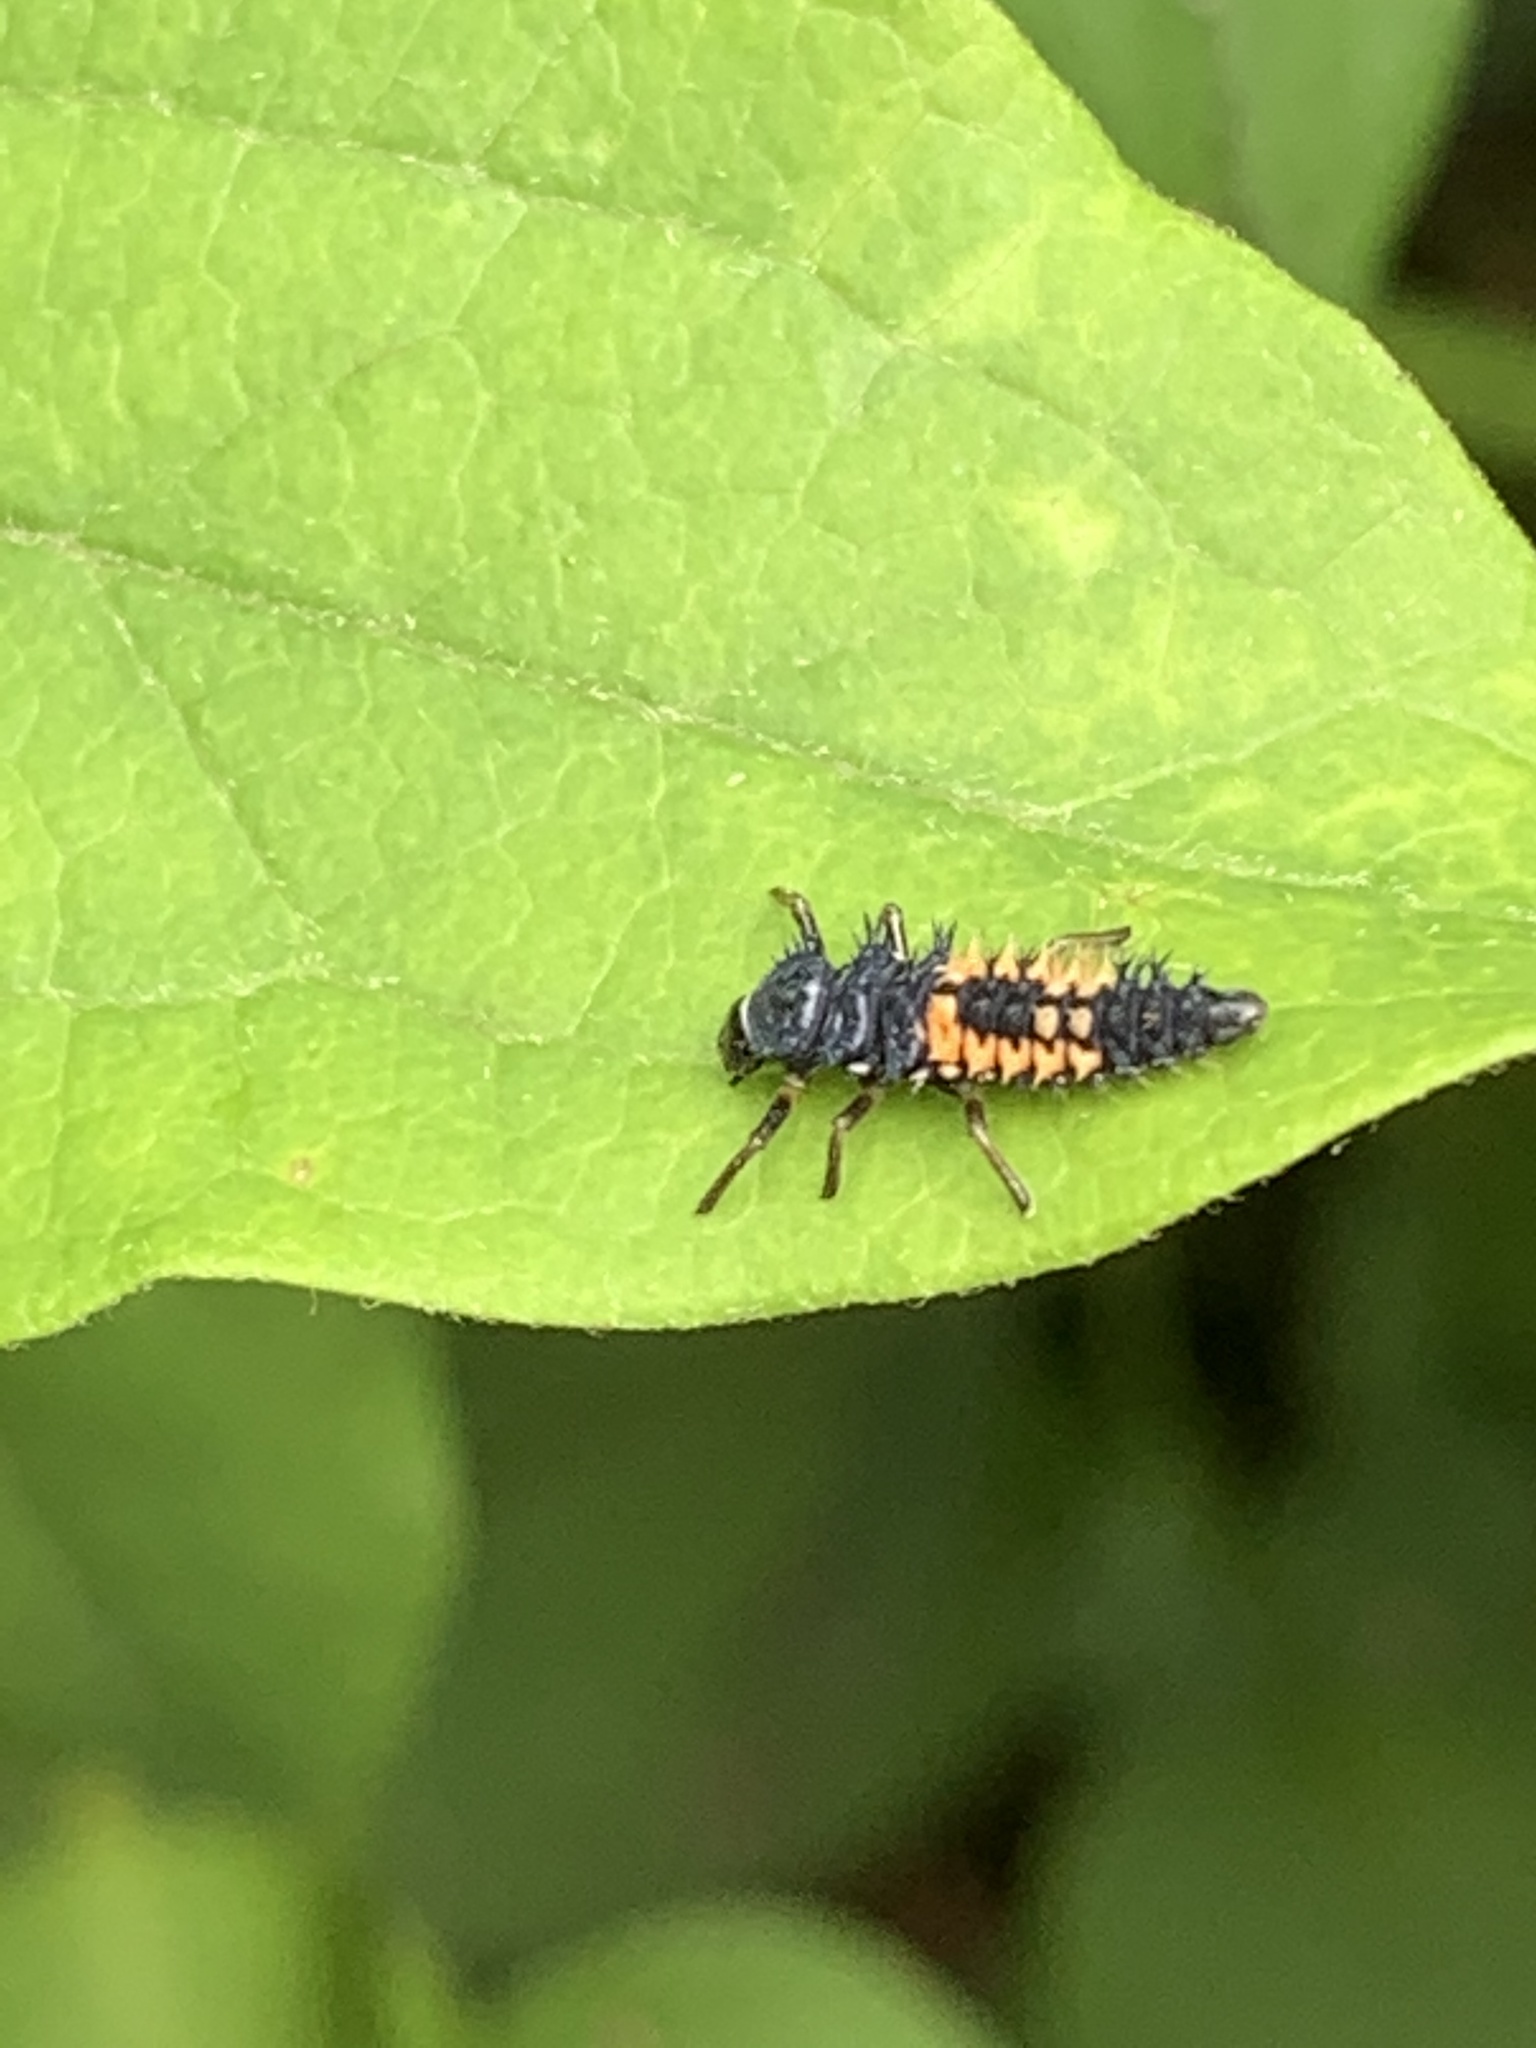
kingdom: Animalia
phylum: Arthropoda
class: Insecta
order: Coleoptera
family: Coccinellidae
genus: Harmonia
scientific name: Harmonia axyridis
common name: Harlequin ladybird
